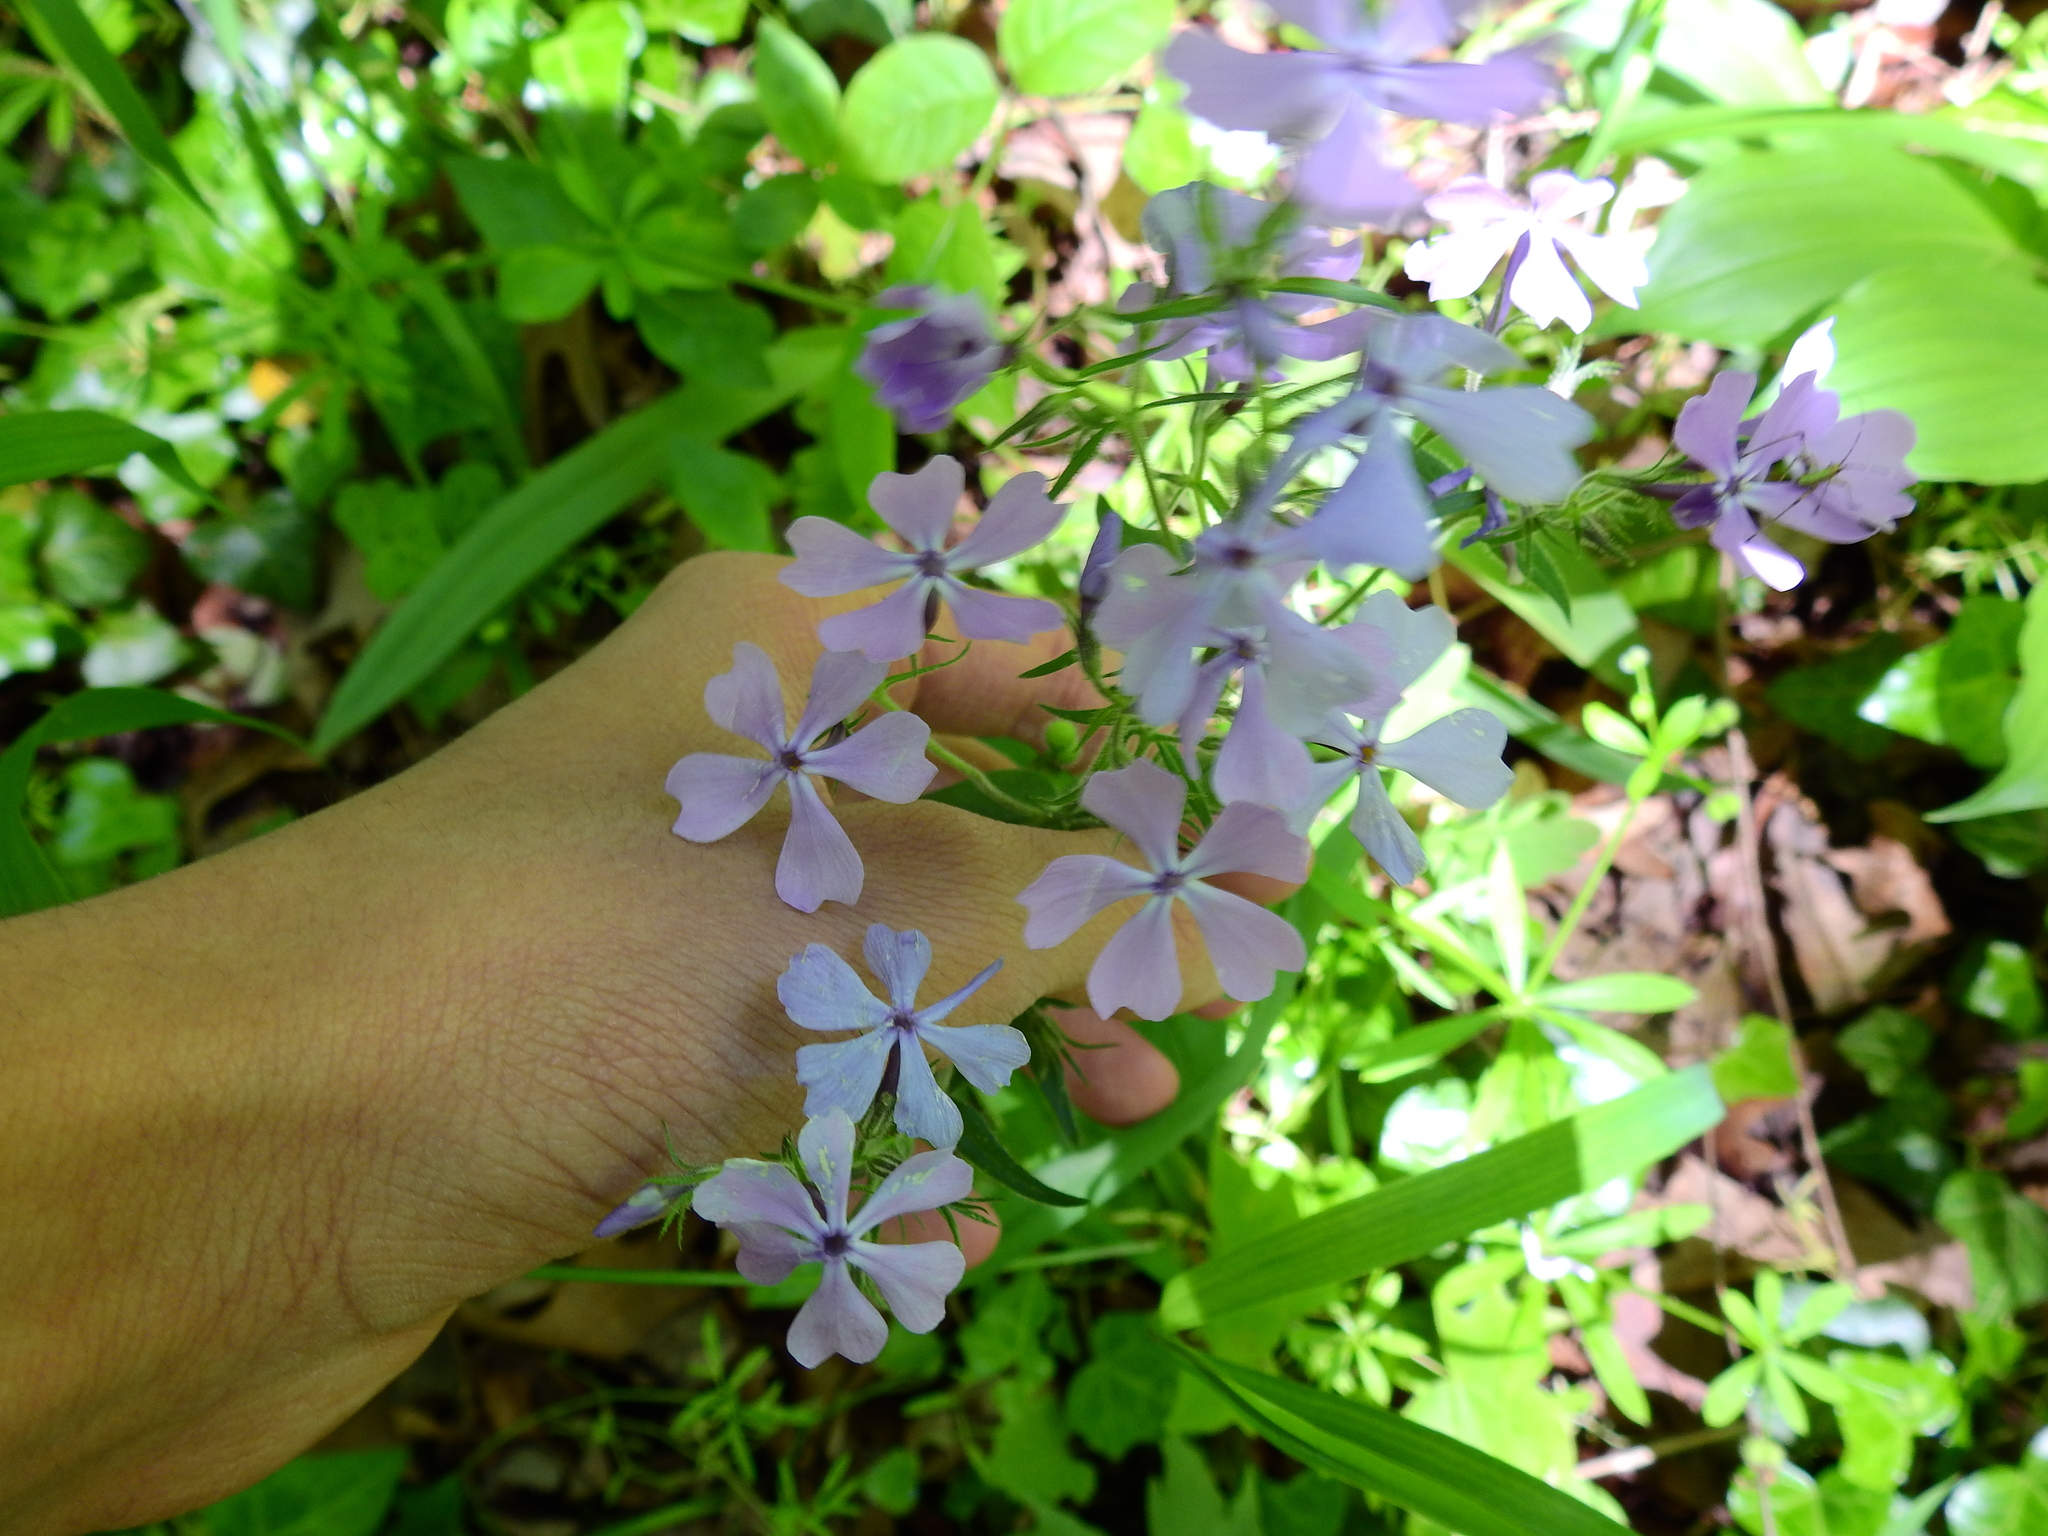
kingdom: Plantae
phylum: Tracheophyta
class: Magnoliopsida
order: Ericales
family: Polemoniaceae
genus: Phlox
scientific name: Phlox divaricata
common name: Blue phlox
